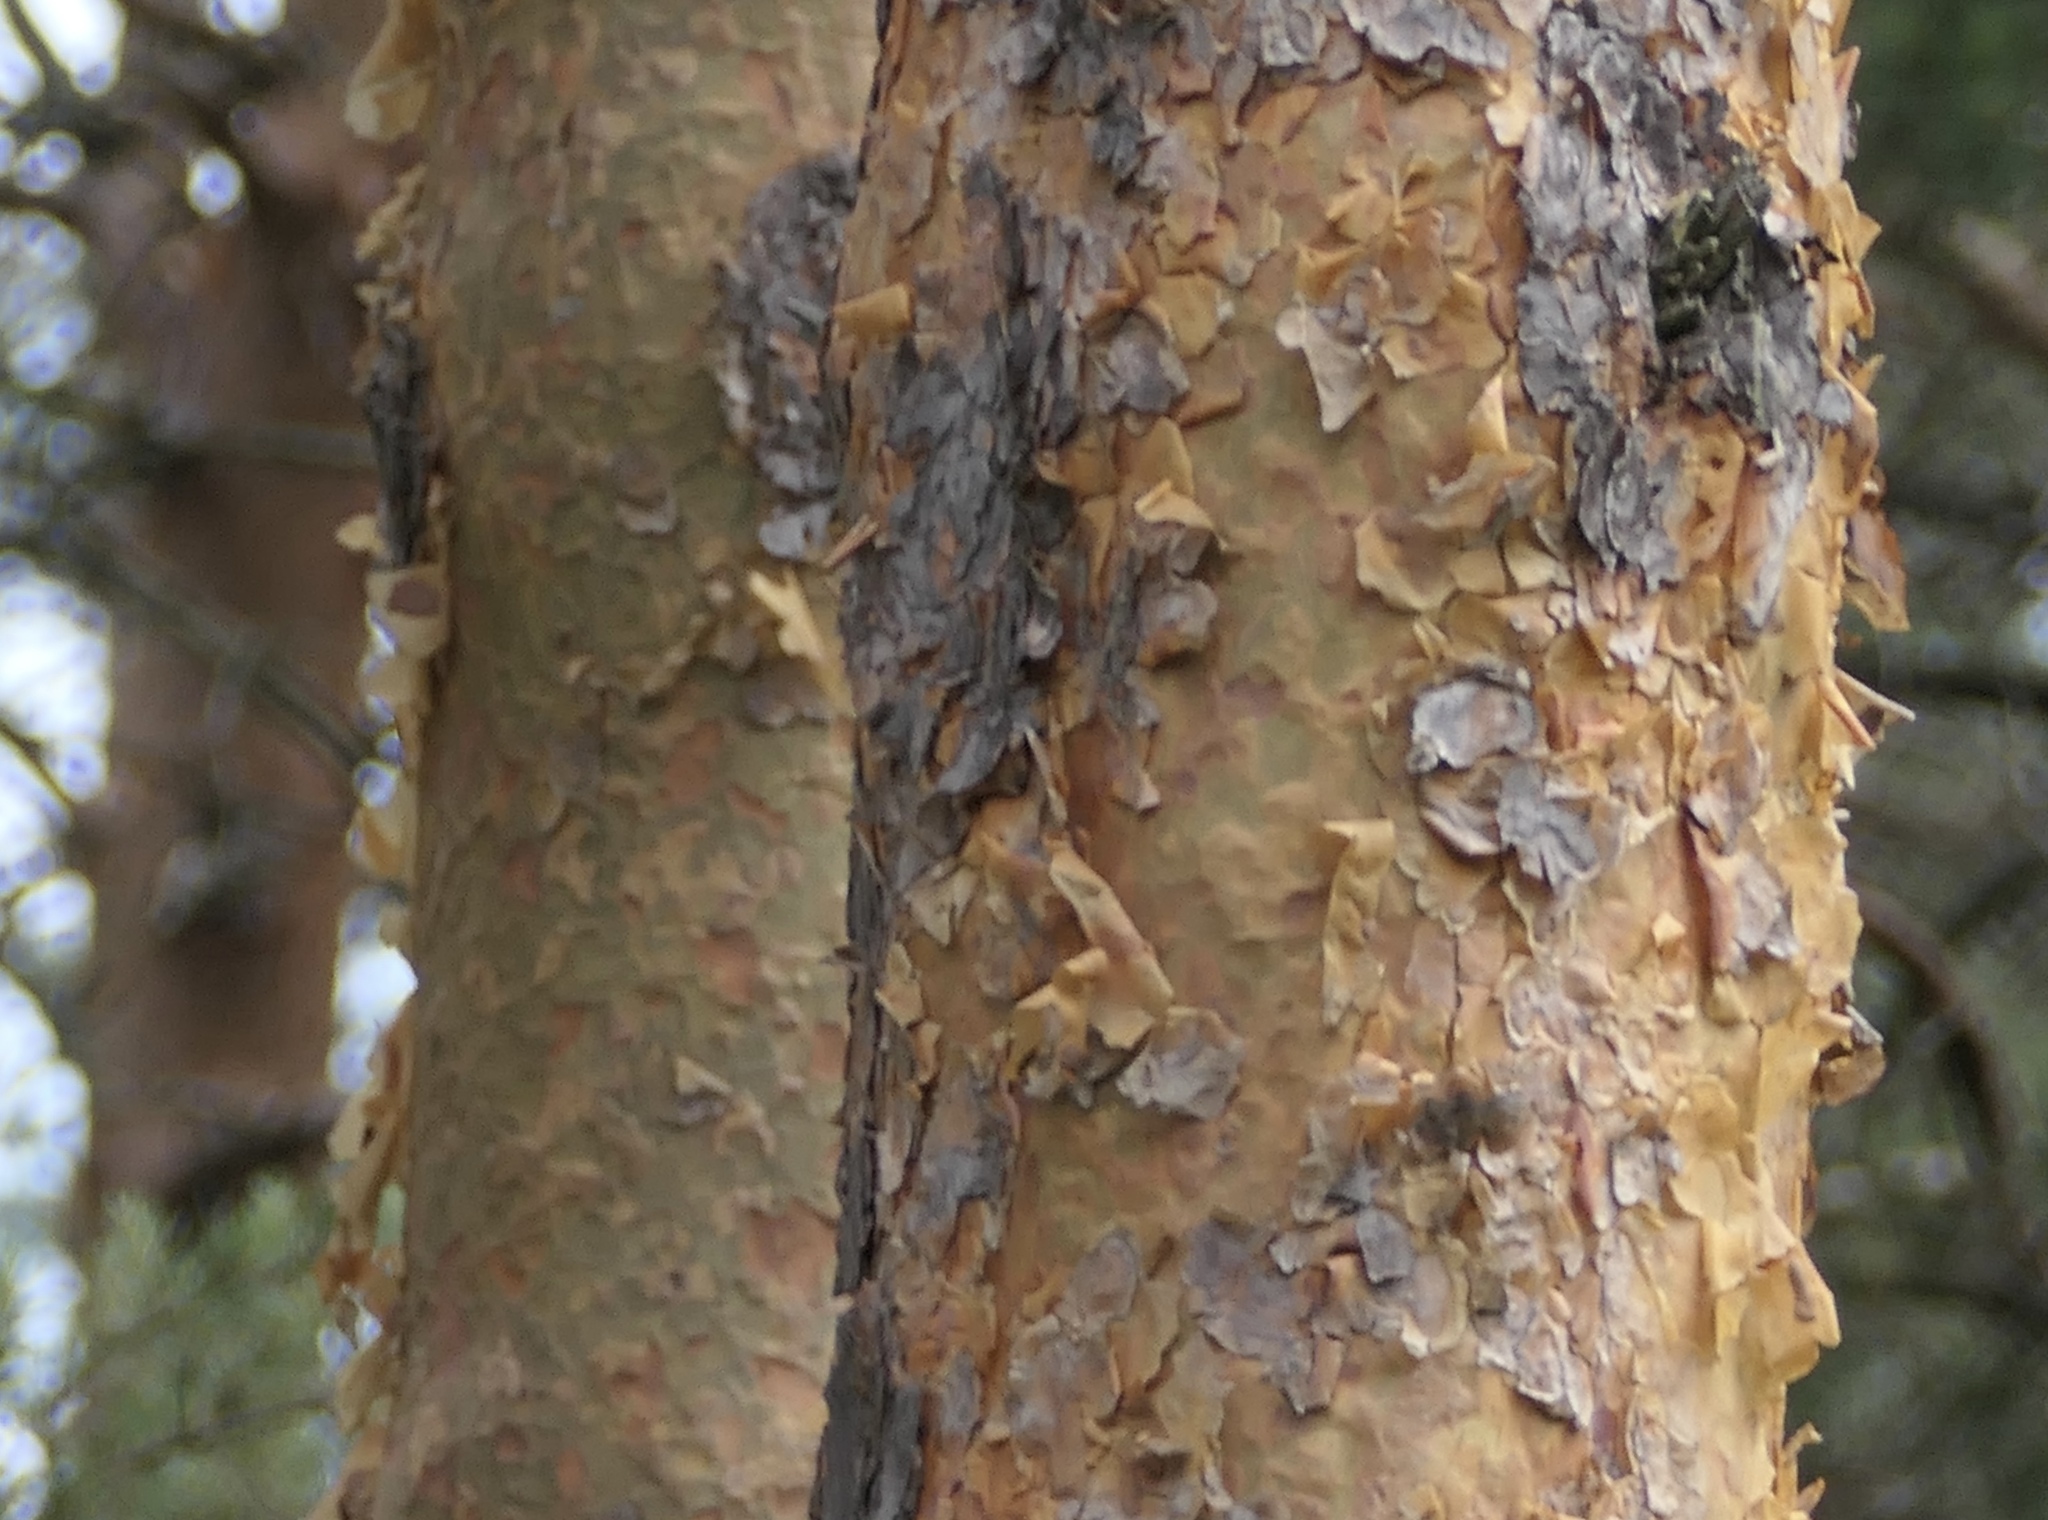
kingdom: Plantae
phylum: Tracheophyta
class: Pinopsida
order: Pinales
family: Pinaceae
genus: Pinus
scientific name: Pinus sylvestris
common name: Scots pine
